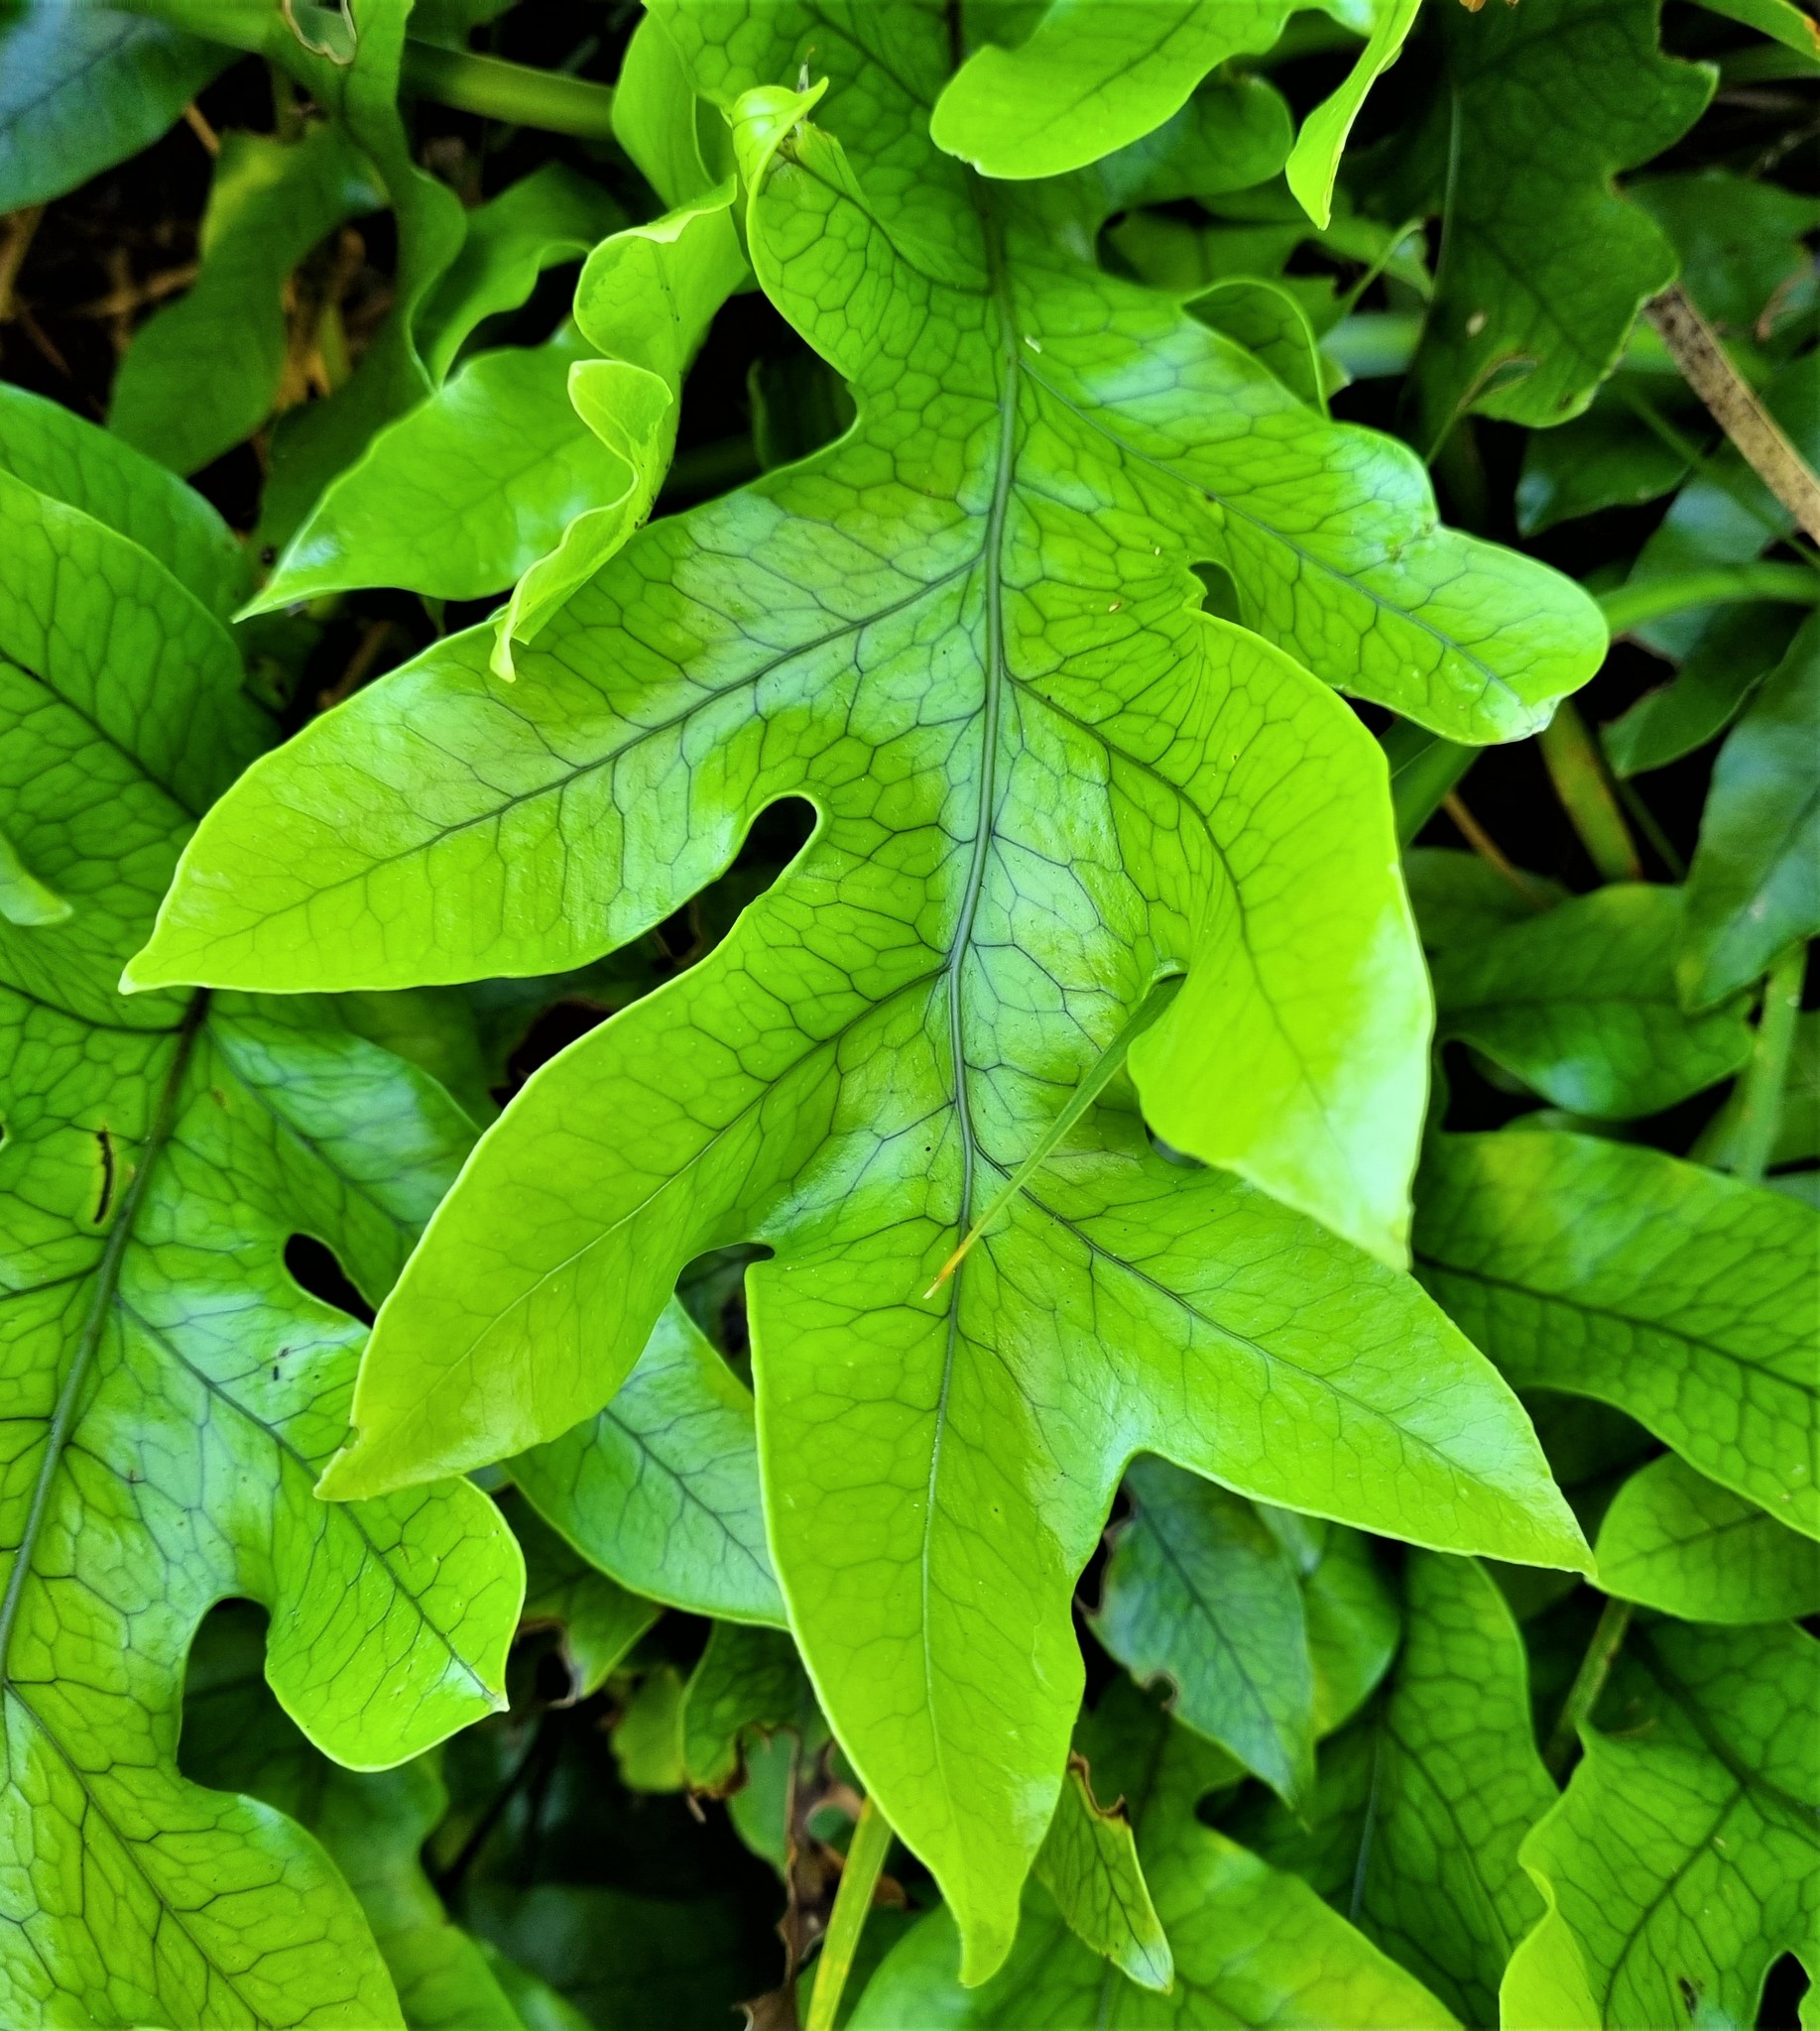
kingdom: Plantae
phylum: Tracheophyta
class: Polypodiopsida
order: Polypodiales
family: Polypodiaceae
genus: Lecanopteris
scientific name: Lecanopteris pustulata
